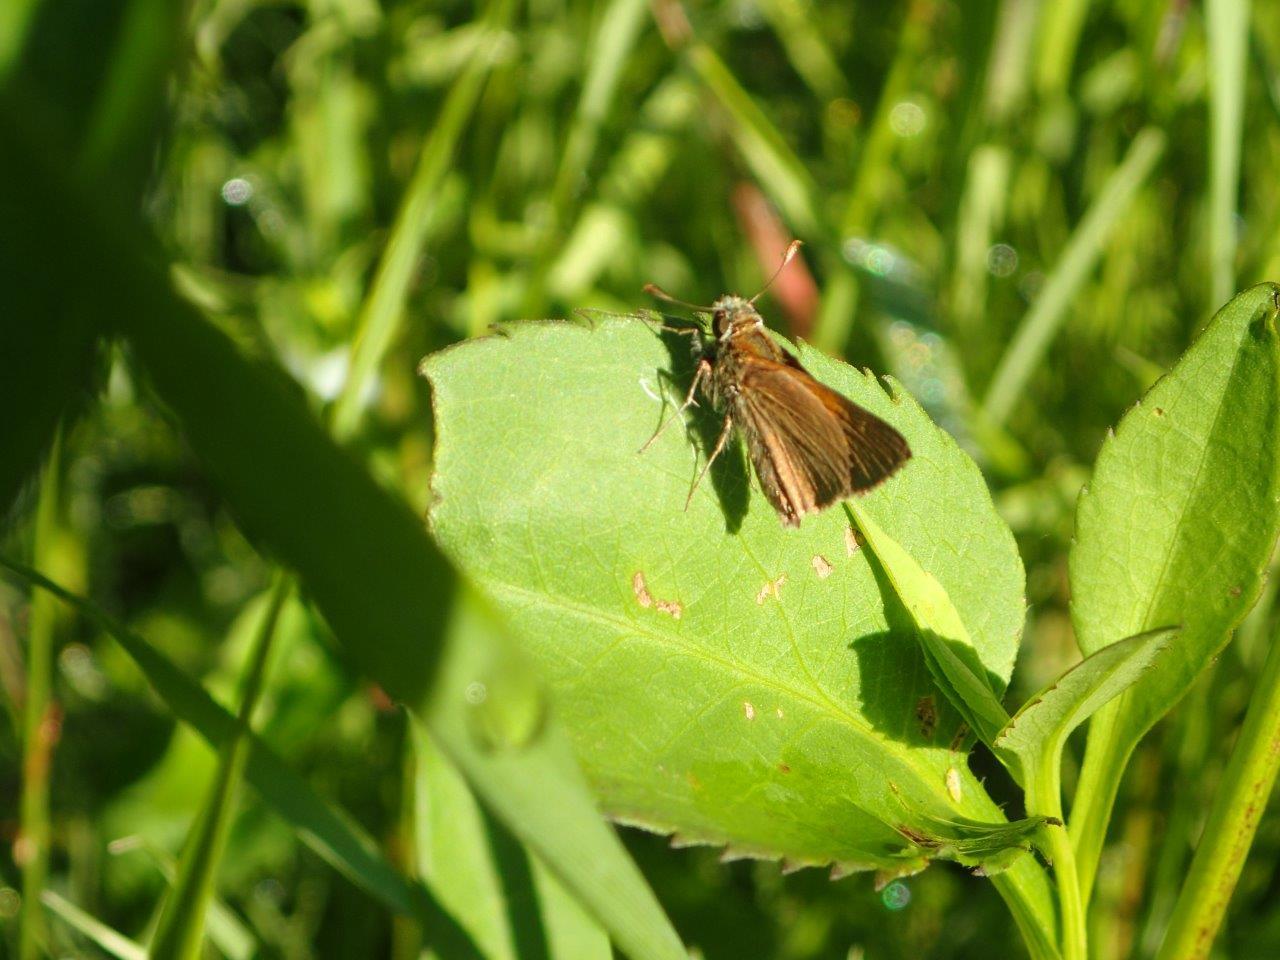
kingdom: Animalia
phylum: Arthropoda
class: Insecta
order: Lepidoptera
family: Hesperiidae
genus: Polites
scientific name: Polites themistocles
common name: Tawny-edged skipper
